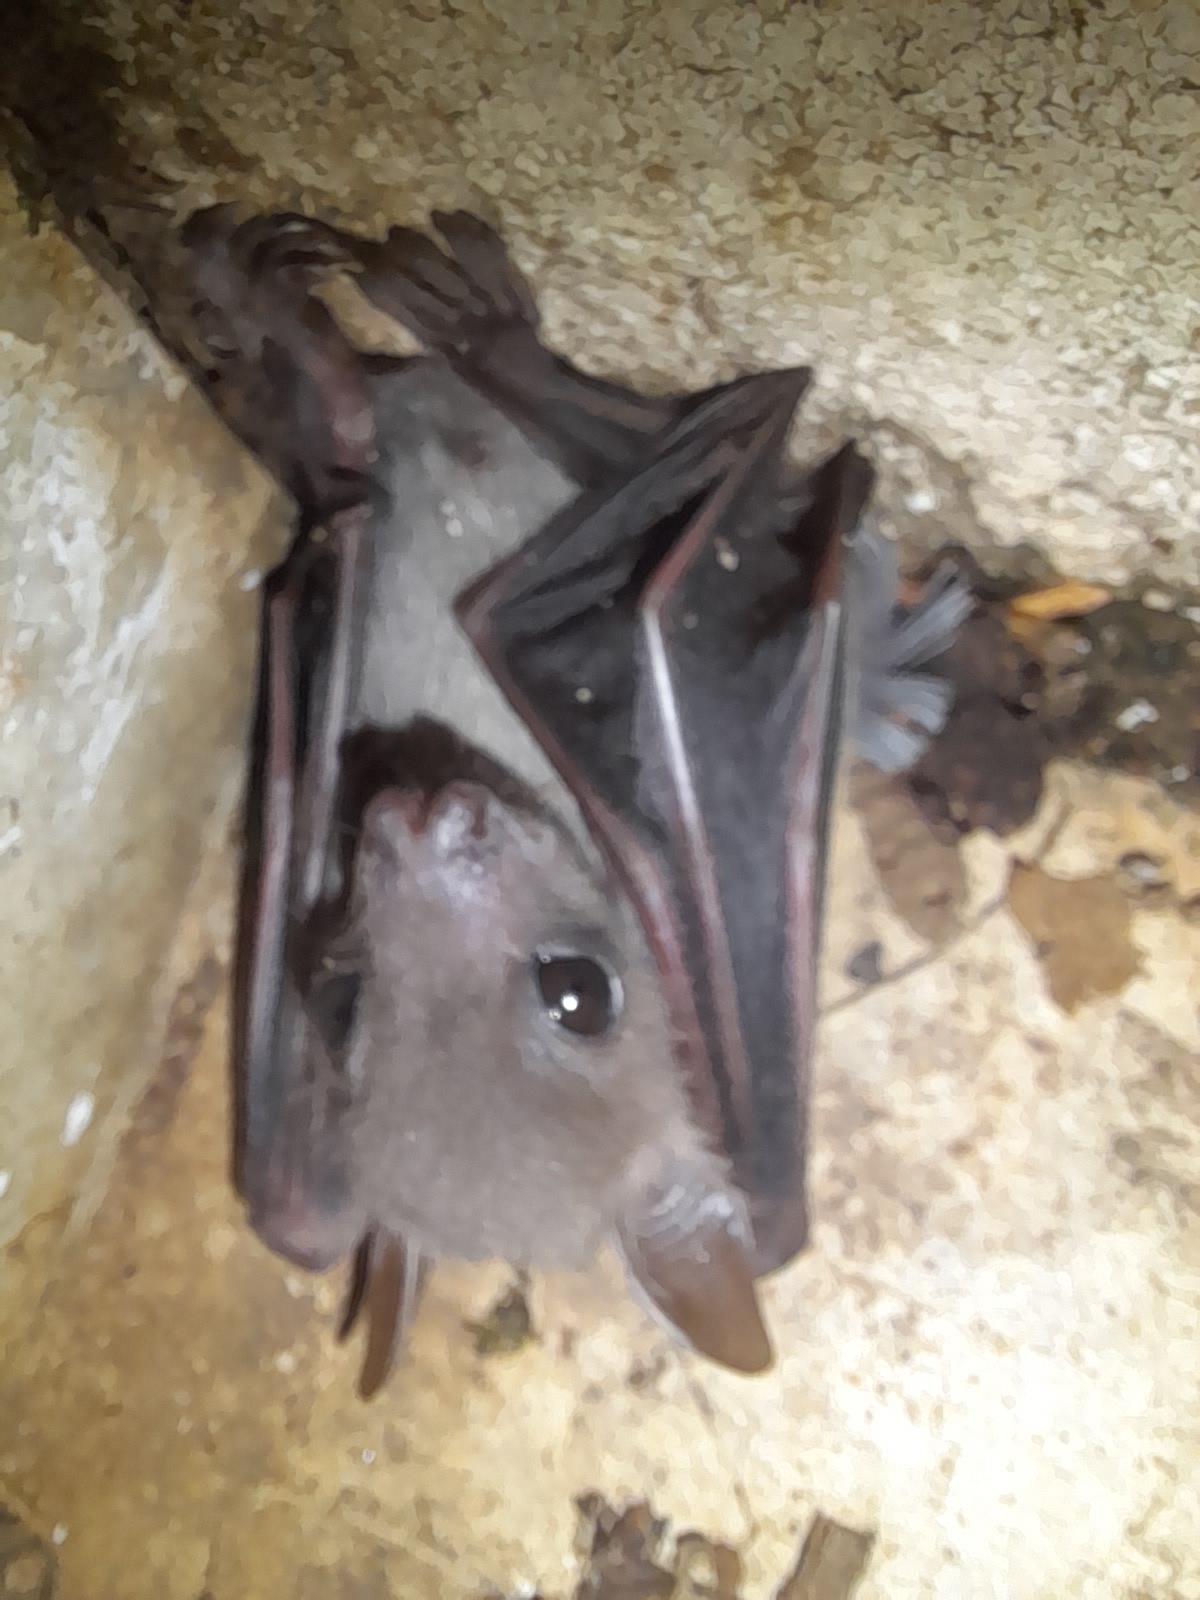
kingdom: Animalia
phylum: Chordata
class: Mammalia
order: Chiroptera
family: Pteropodidae
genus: Cynopterus
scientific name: Cynopterus brachyotis
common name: Lesser short-nosed fruit bat
